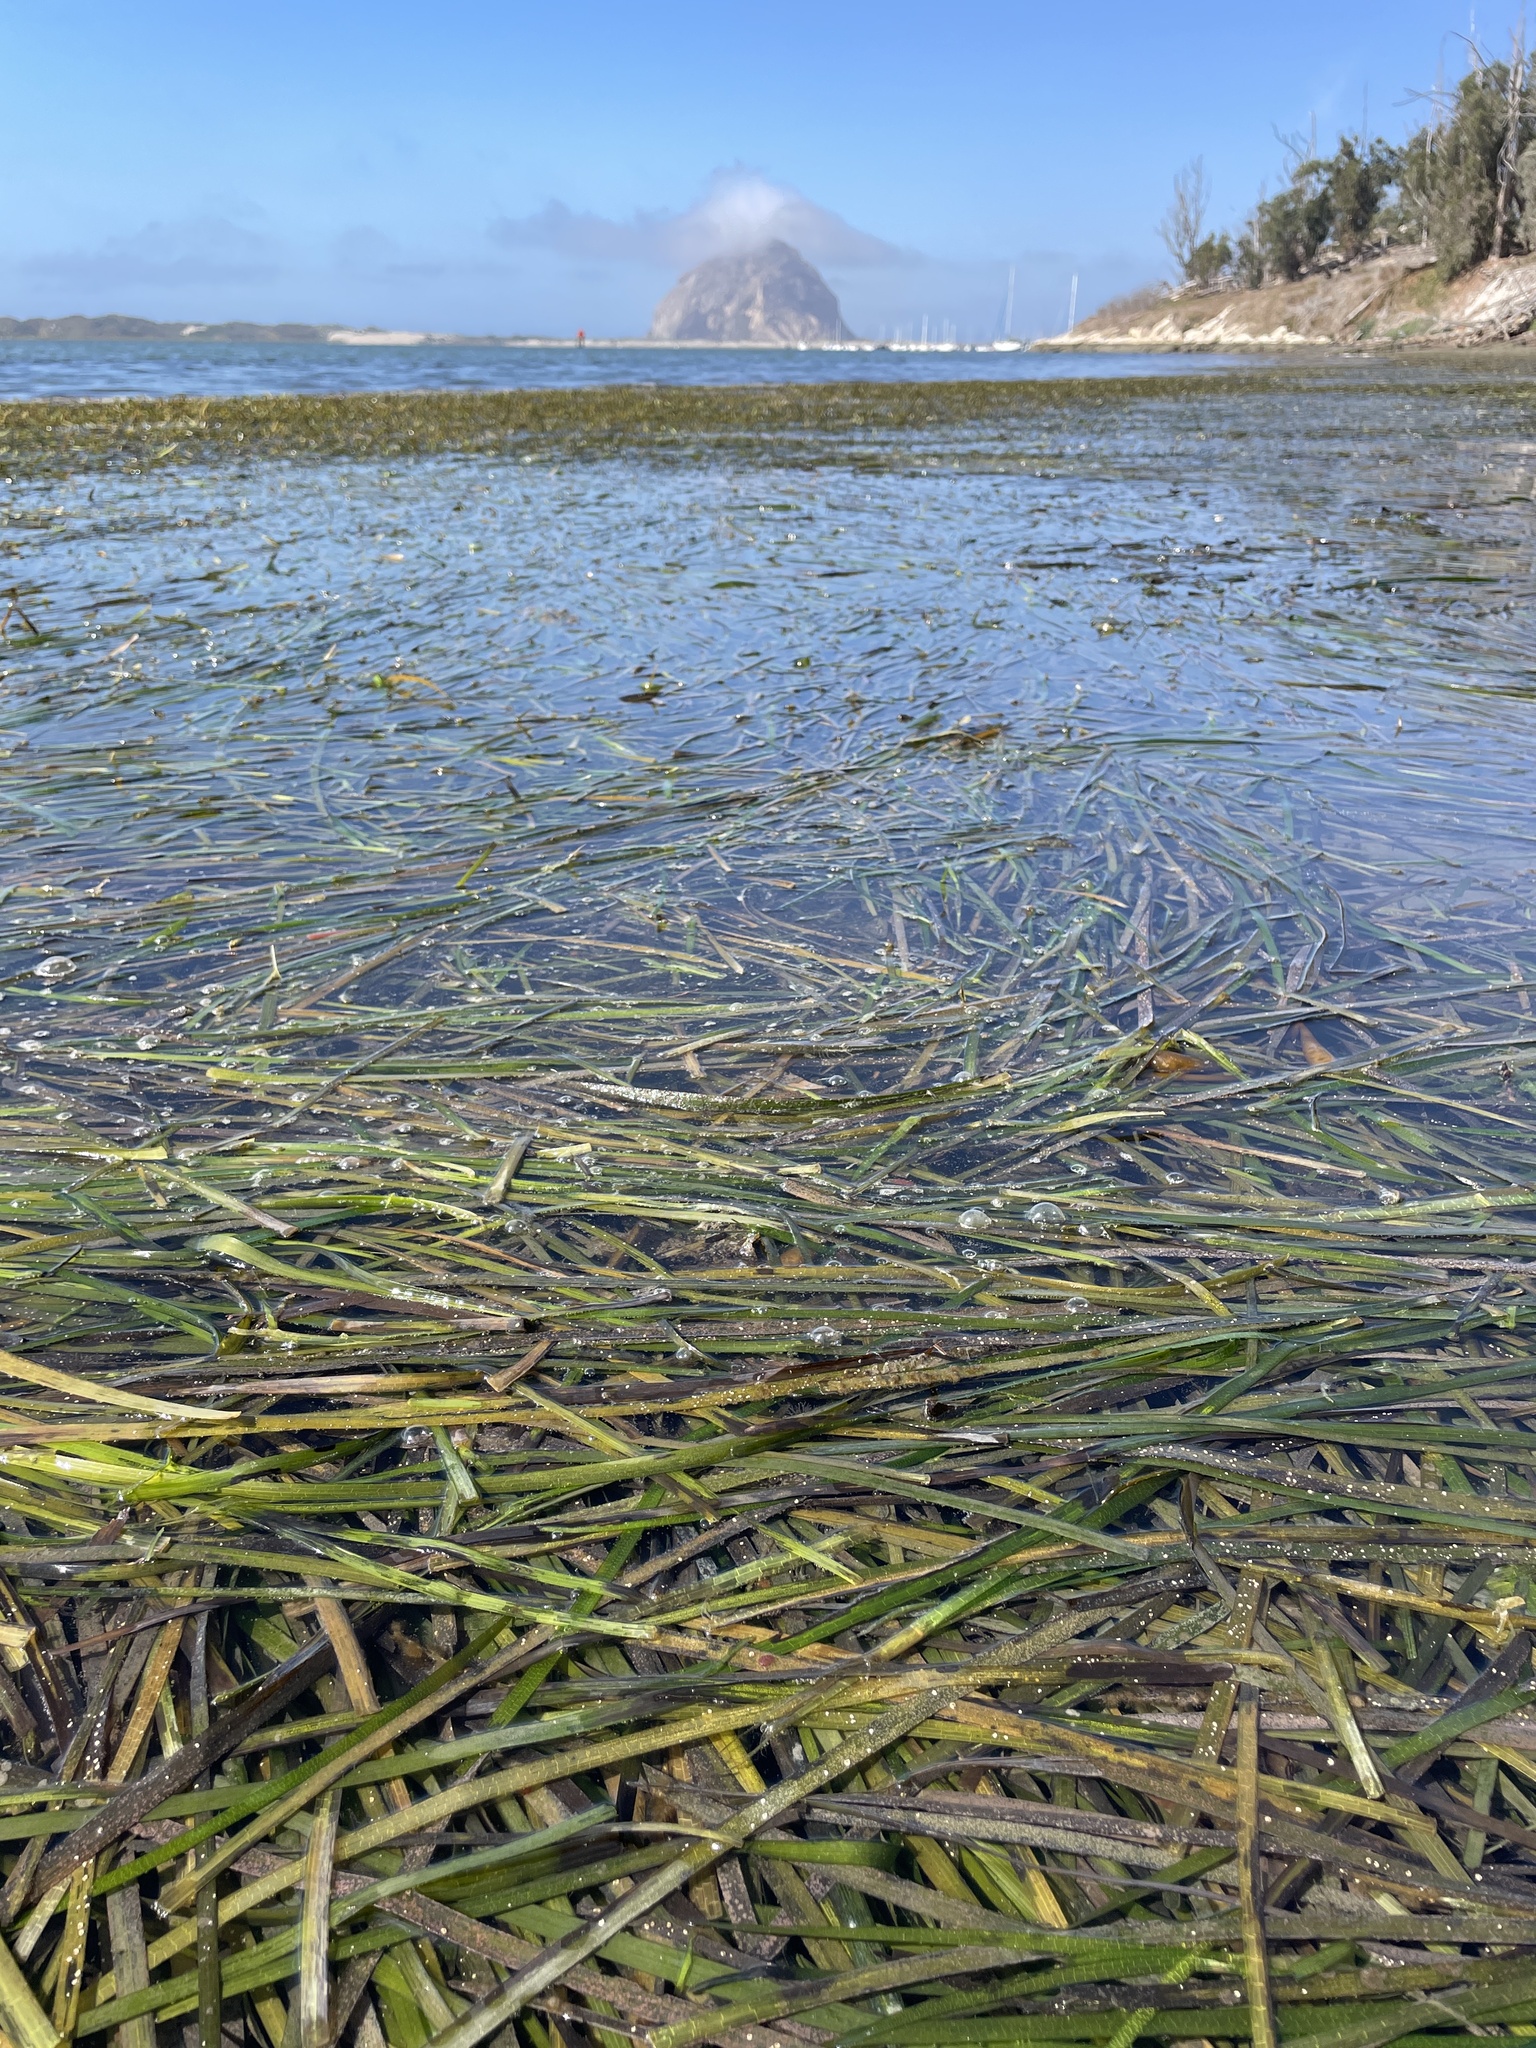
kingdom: Plantae
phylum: Tracheophyta
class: Liliopsida
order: Alismatales
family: Zosteraceae
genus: Zostera
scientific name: Zostera marina
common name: Eelgrass
